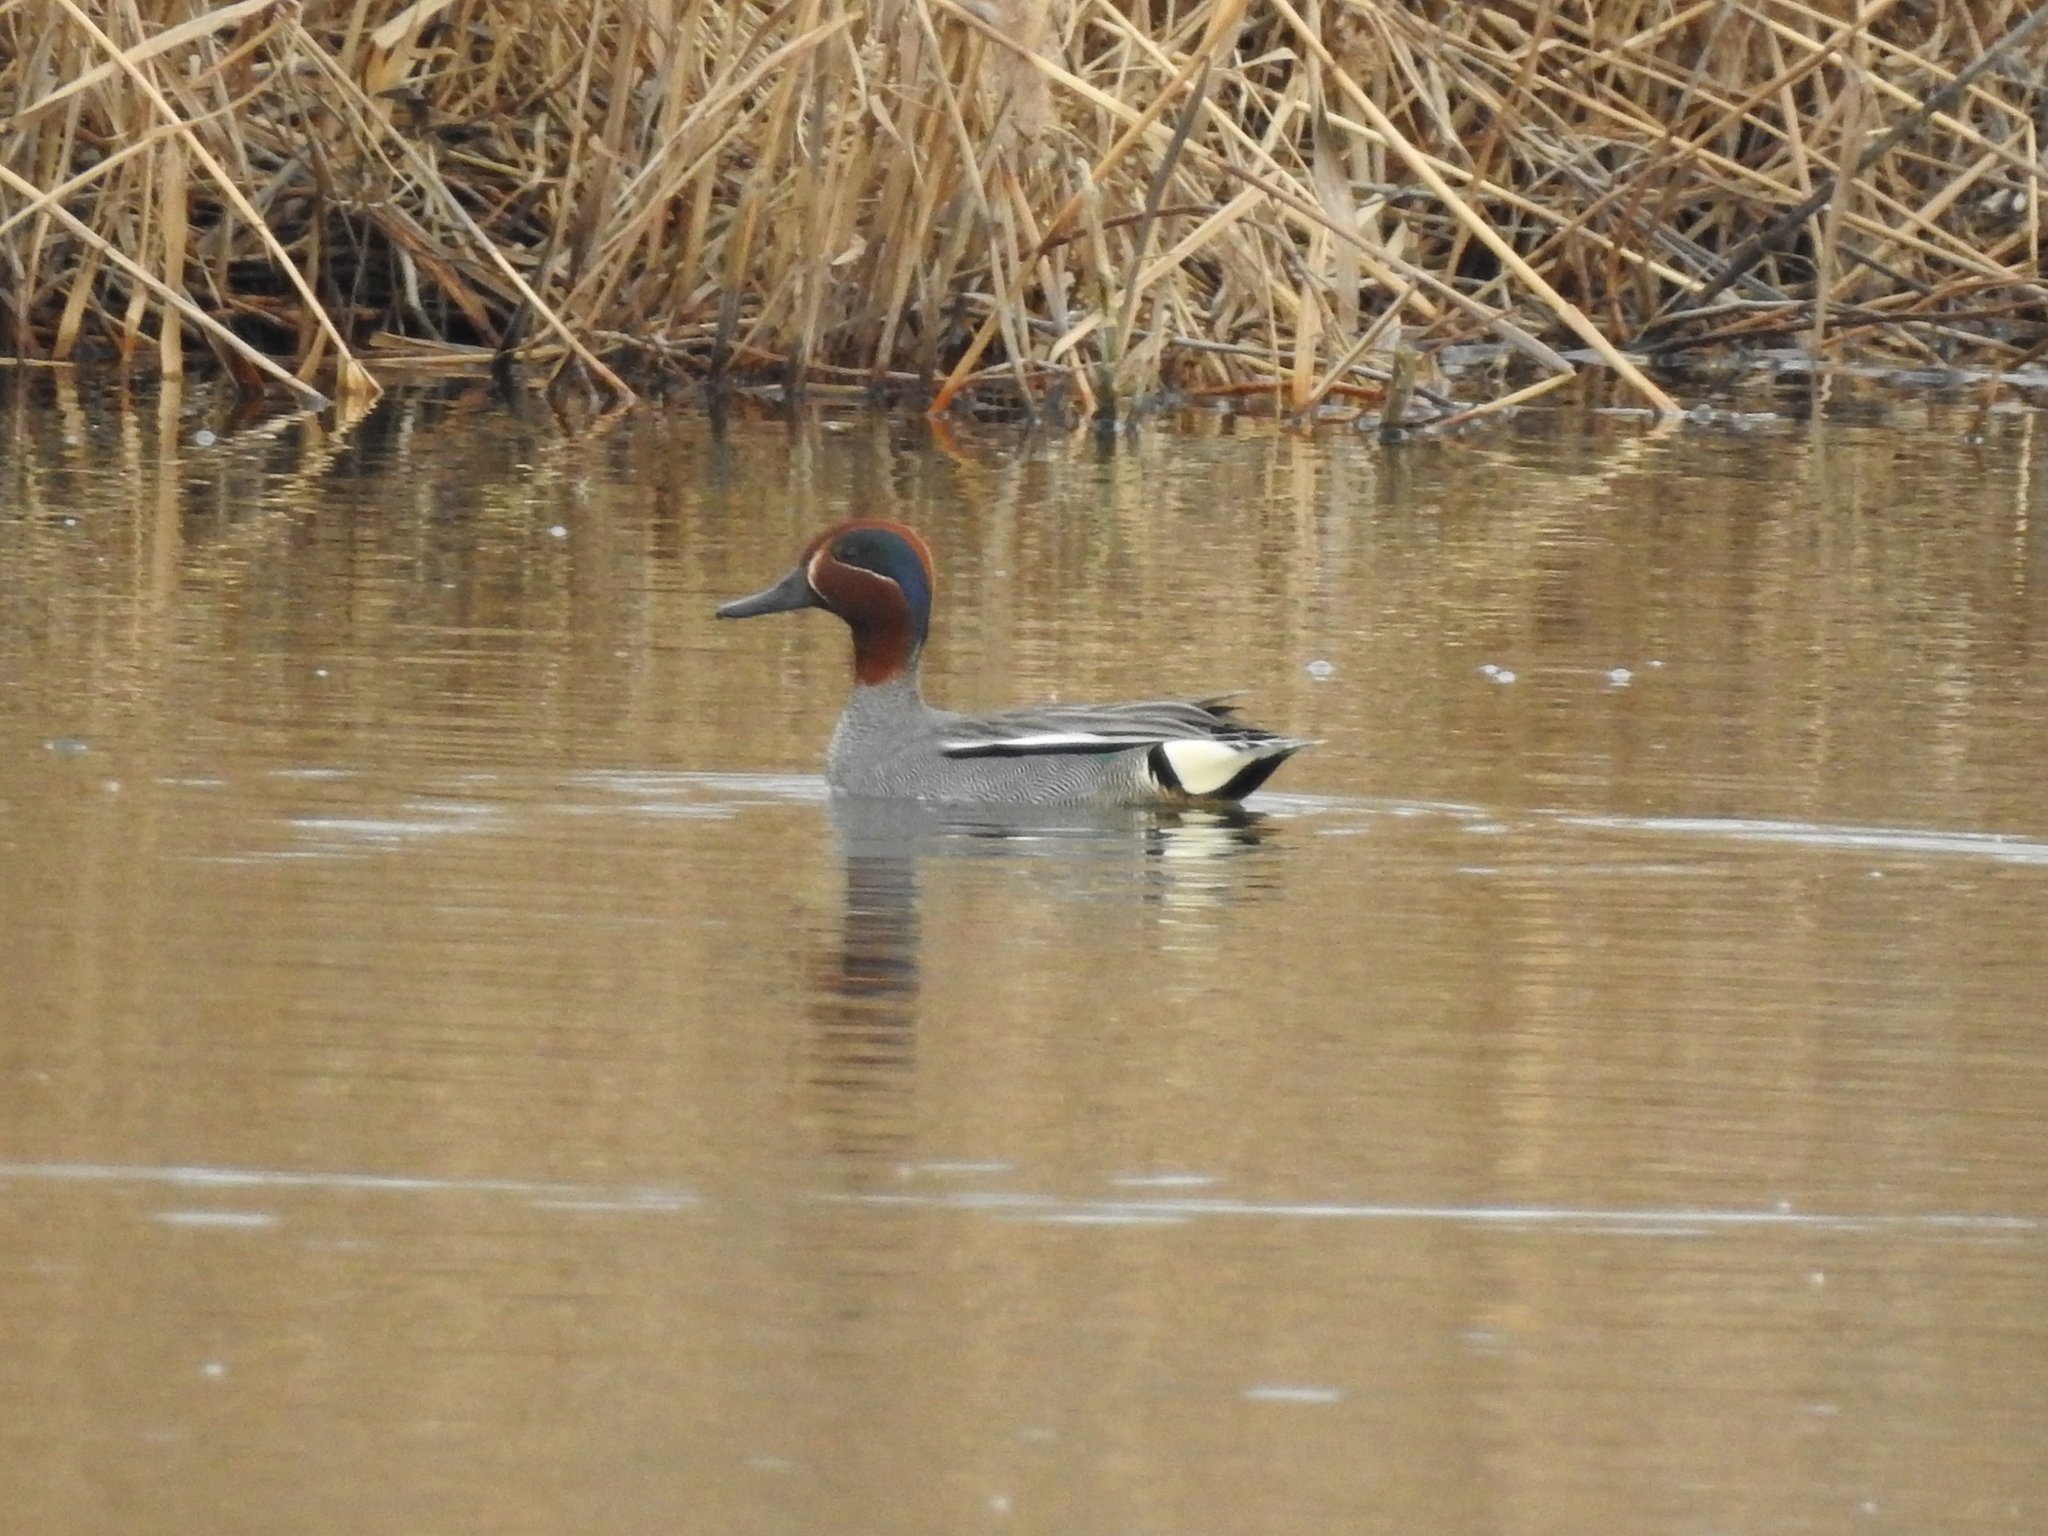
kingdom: Animalia
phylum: Chordata
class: Aves
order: Anseriformes
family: Anatidae
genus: Anas
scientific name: Anas crecca
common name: Eurasian teal
